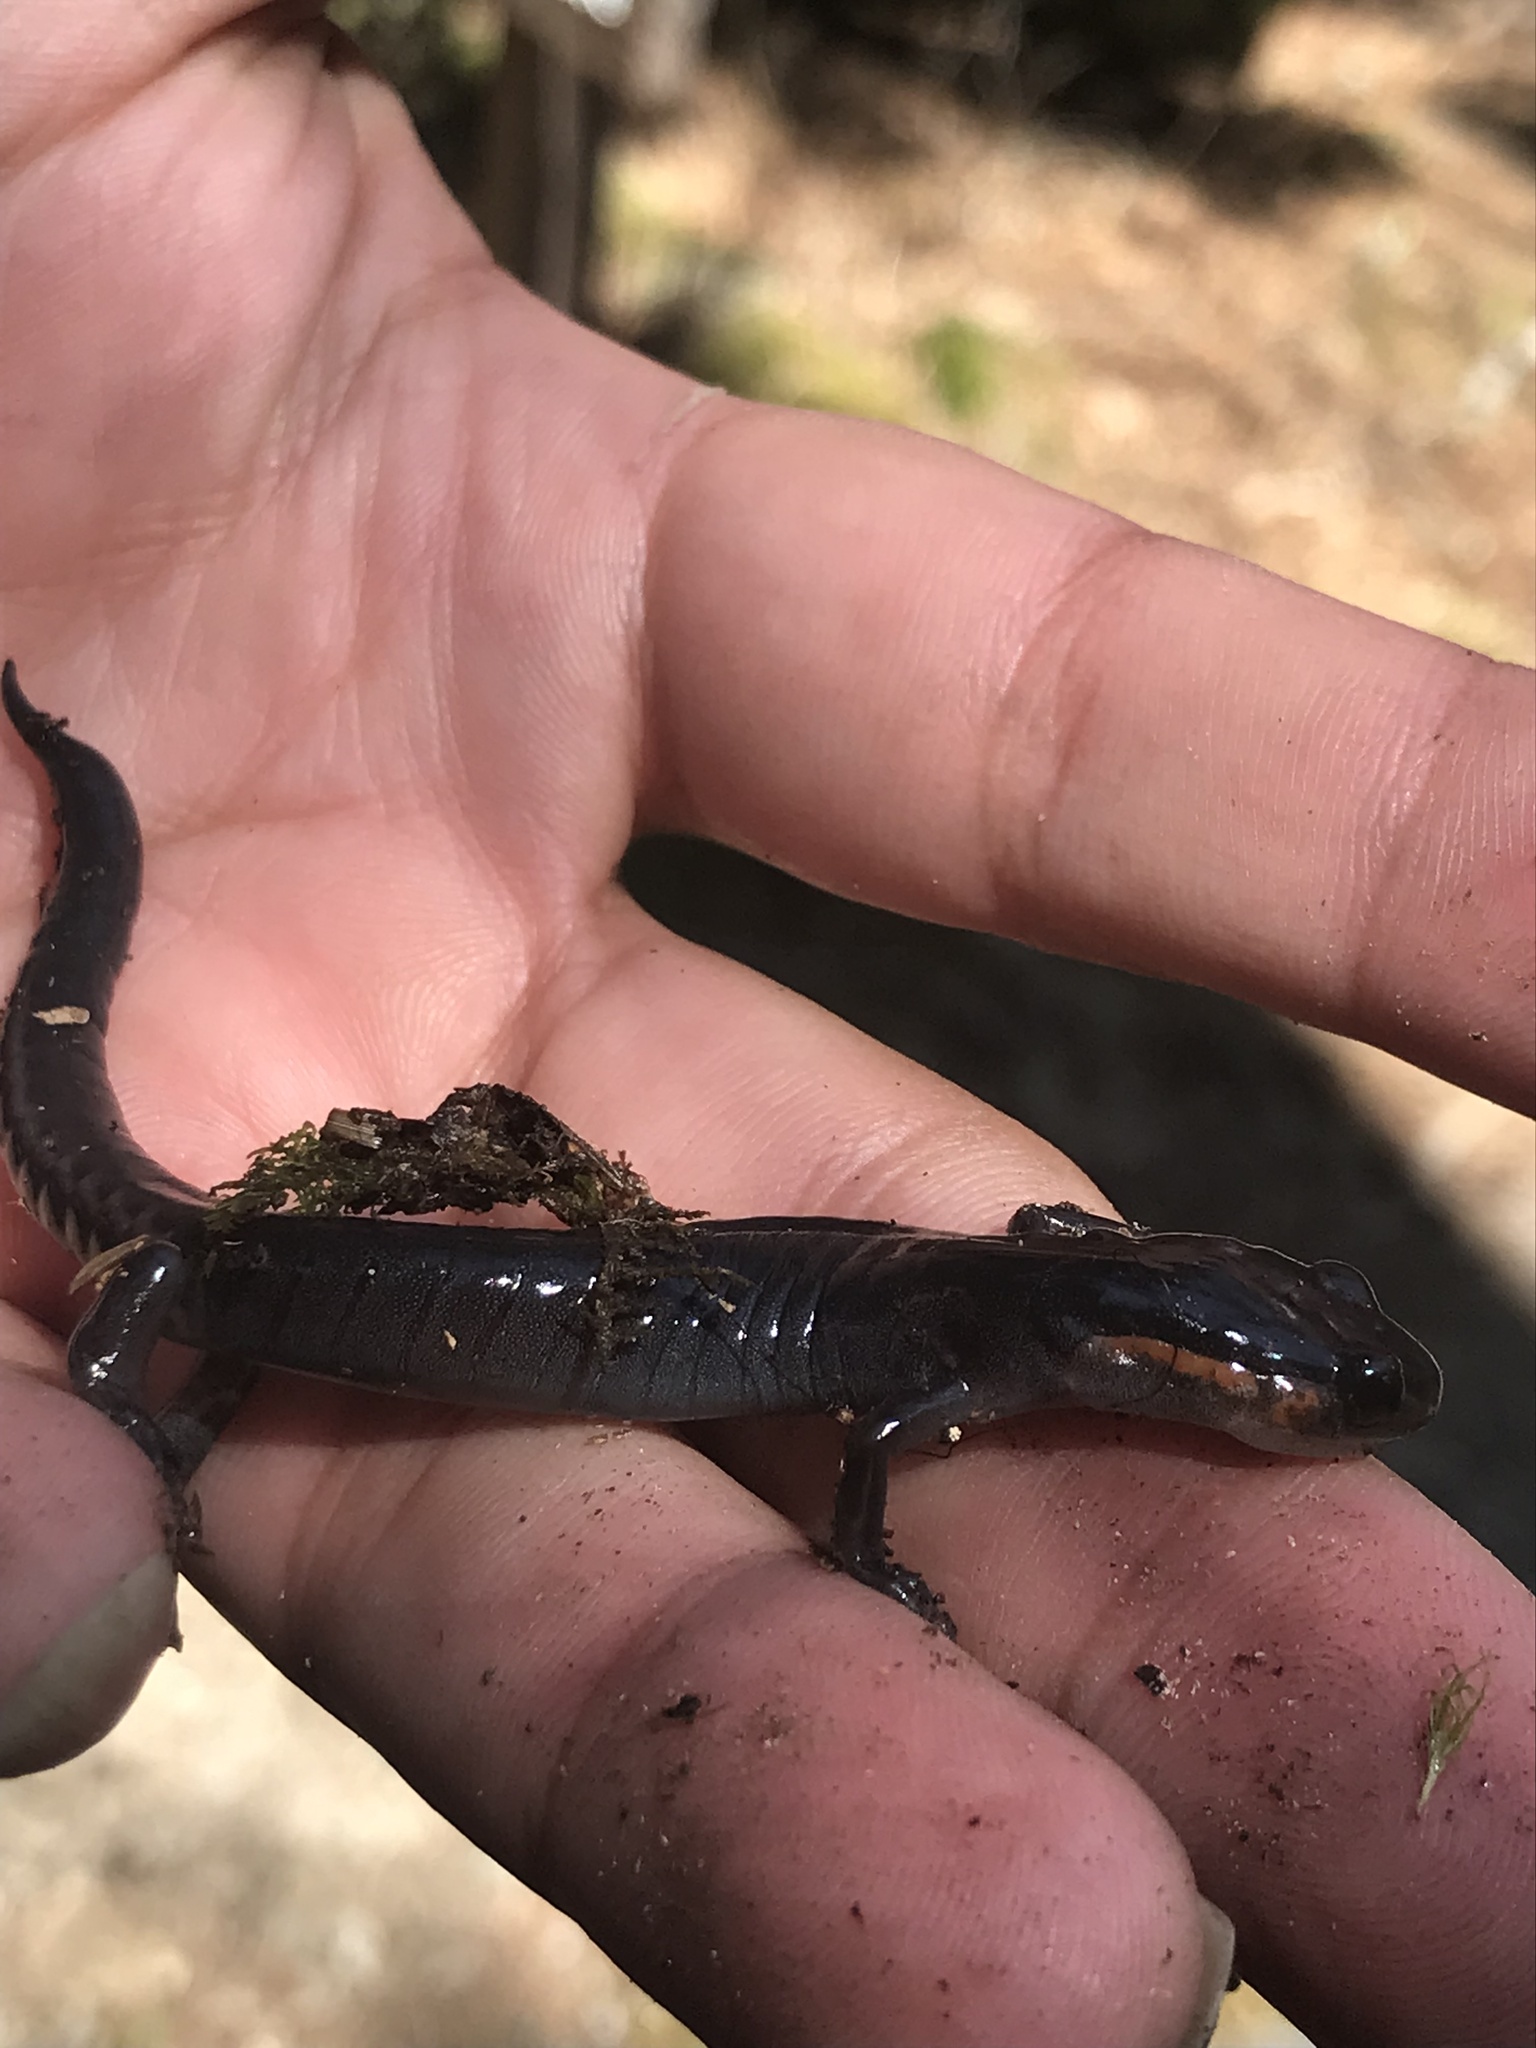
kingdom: Animalia
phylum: Chordata
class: Amphibia
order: Caudata
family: Plethodontidae
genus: Plethodon
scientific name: Plethodon jordani
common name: Red-cheeked salamander
